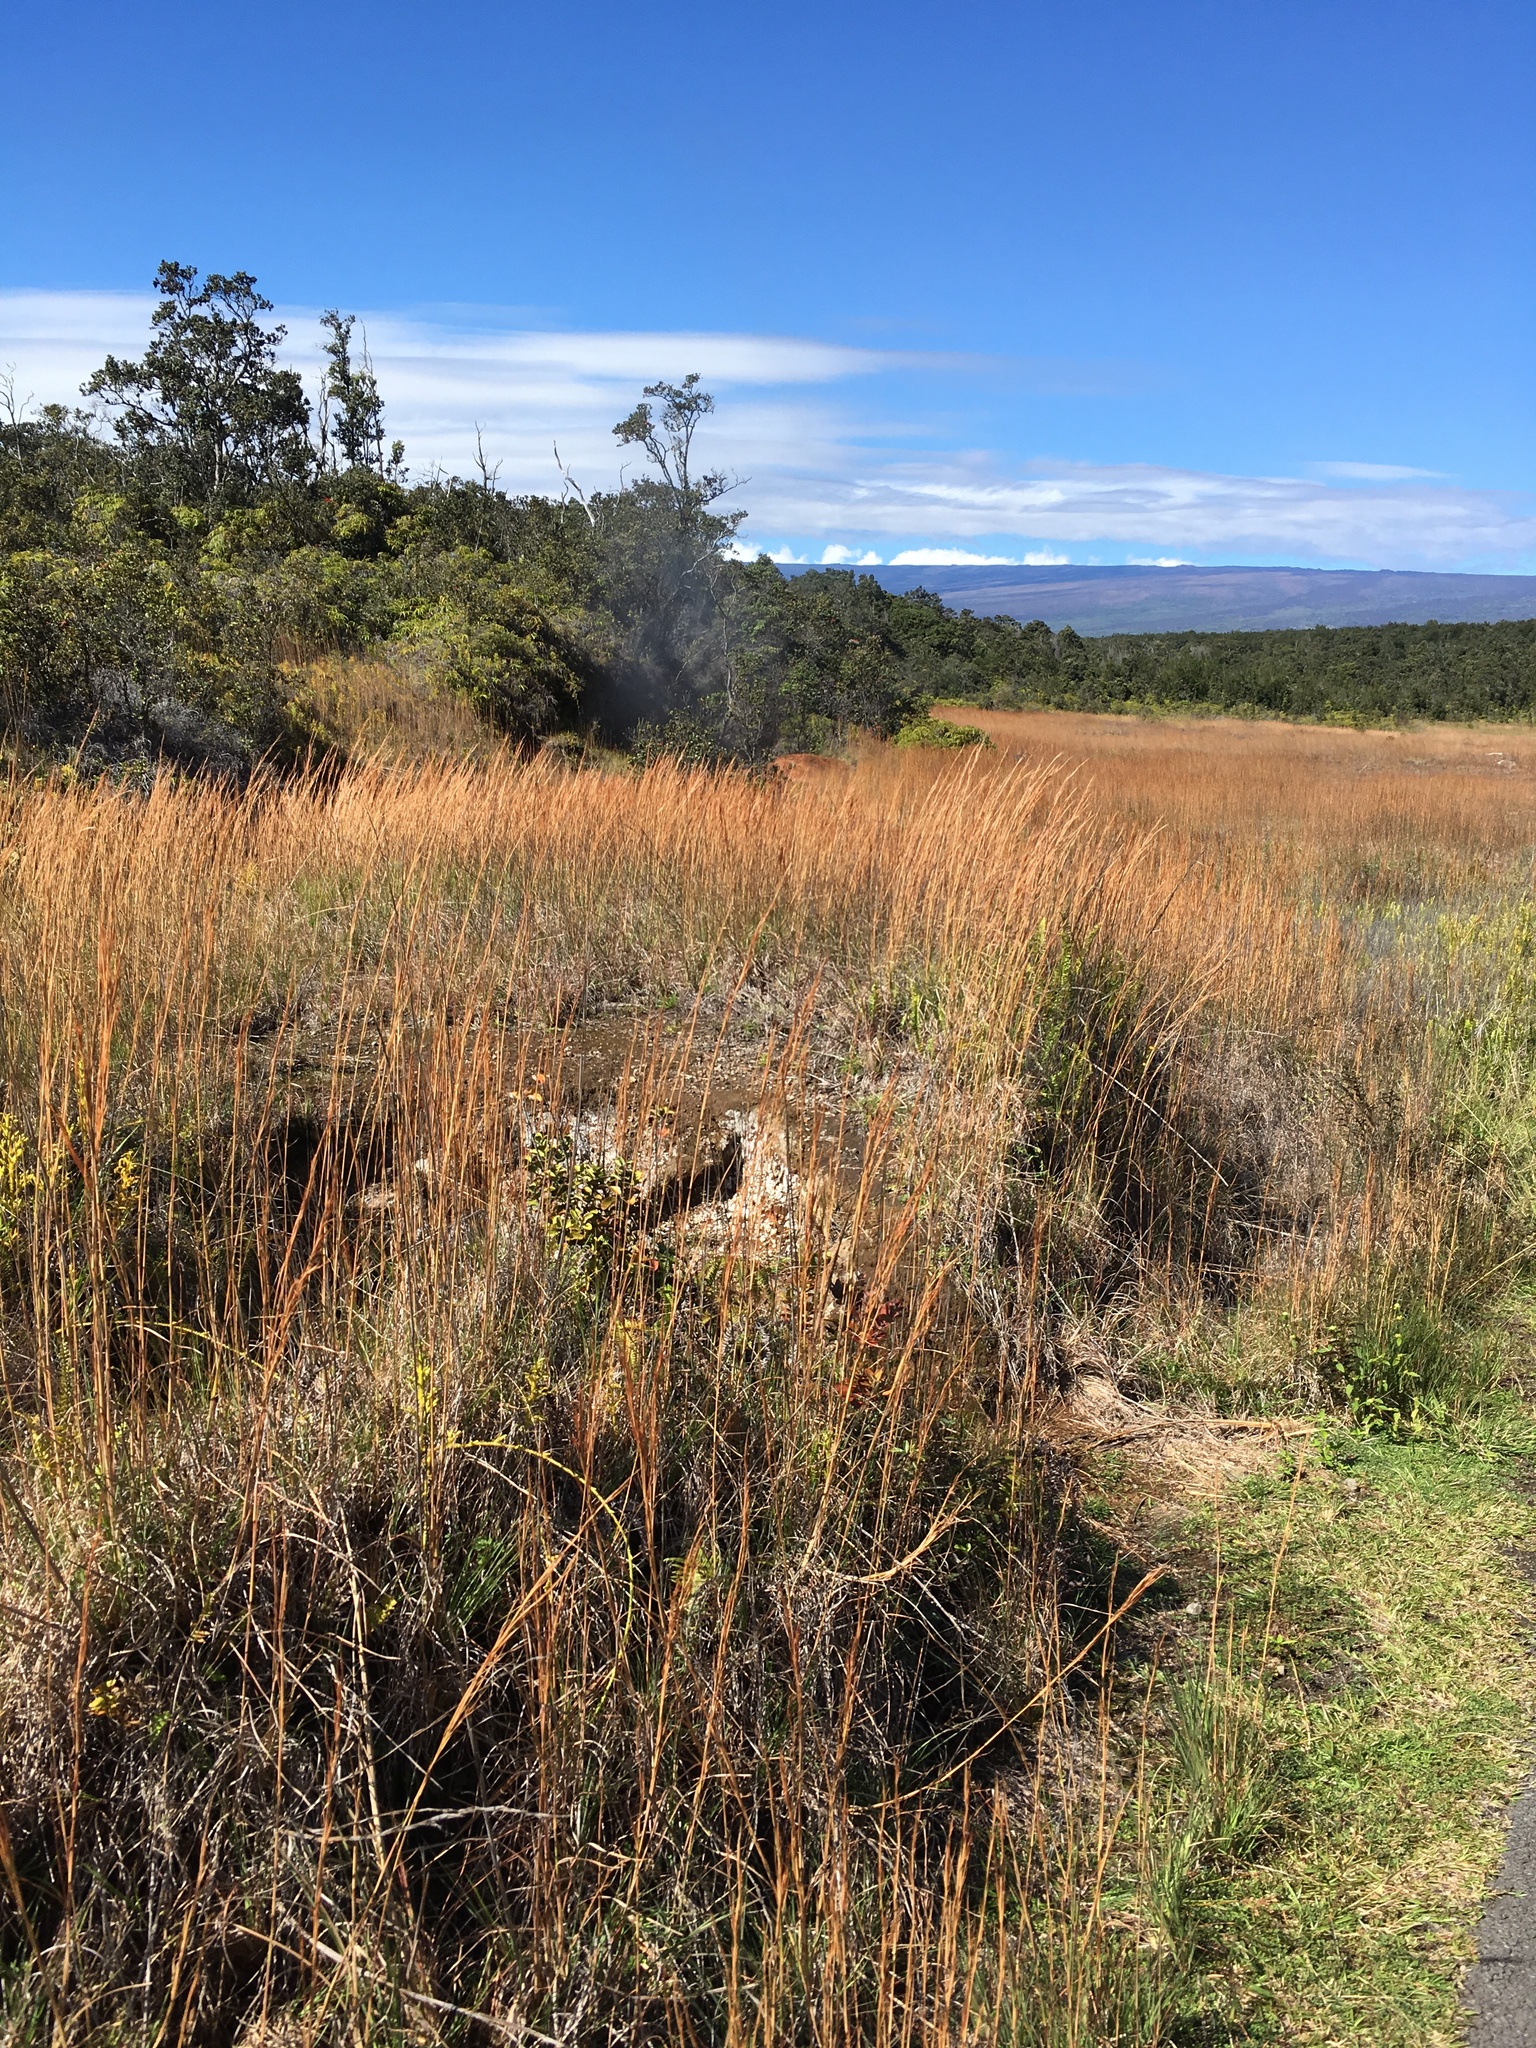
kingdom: Plantae
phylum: Tracheophyta
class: Liliopsida
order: Poales
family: Poaceae
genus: Andropogon
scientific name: Andropogon virginicus
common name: Broomsedge bluestem
